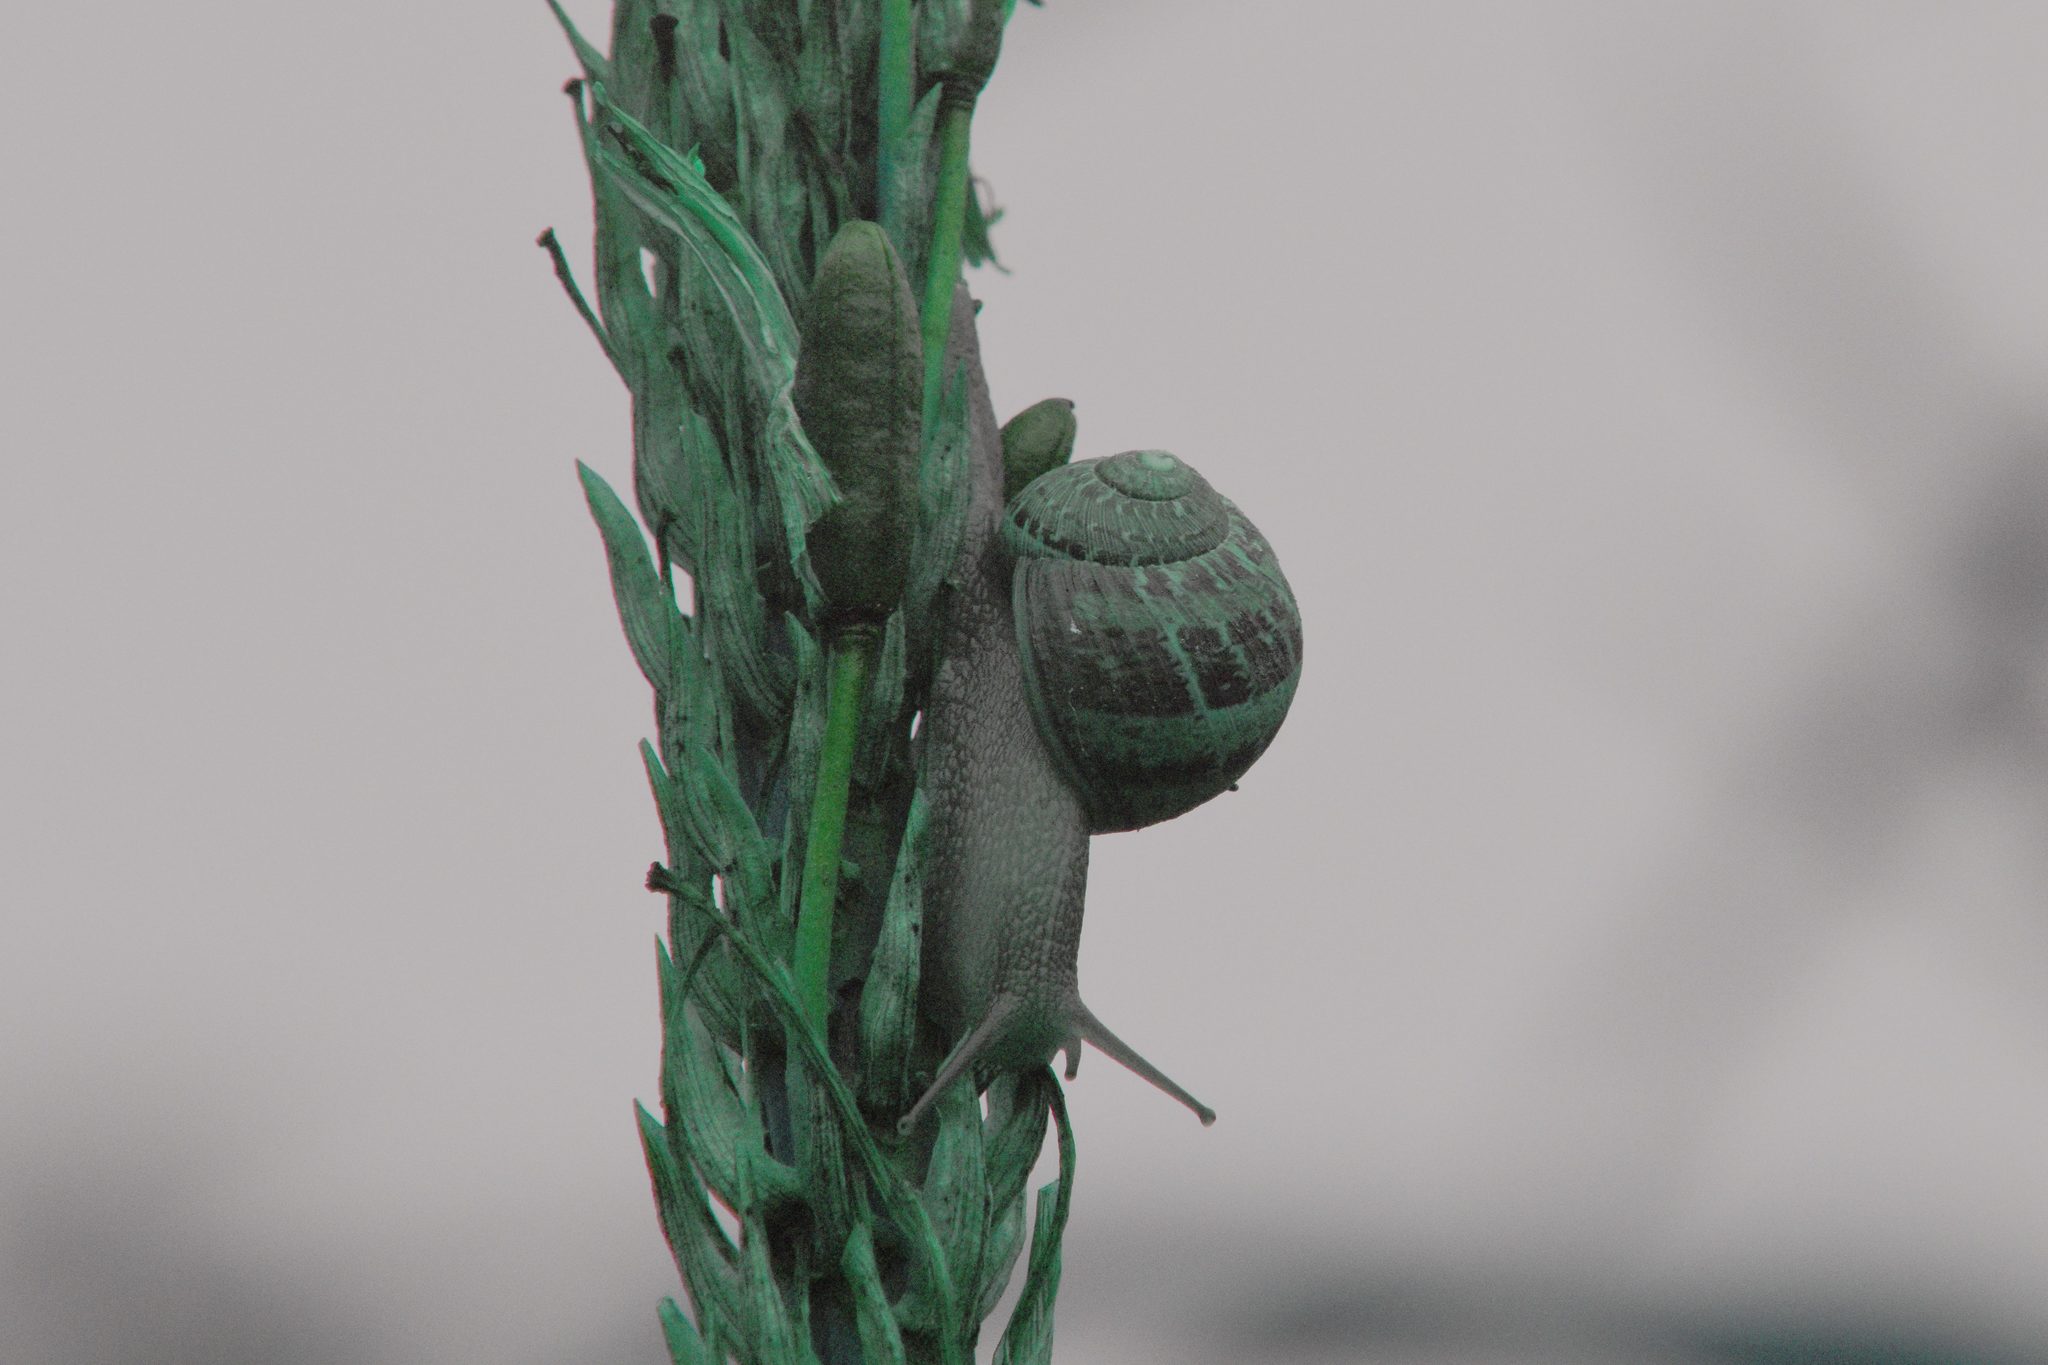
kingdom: Animalia
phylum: Mollusca
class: Gastropoda
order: Stylommatophora
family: Helicidae
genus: Cornu
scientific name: Cornu aspersum
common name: Brown garden snail
